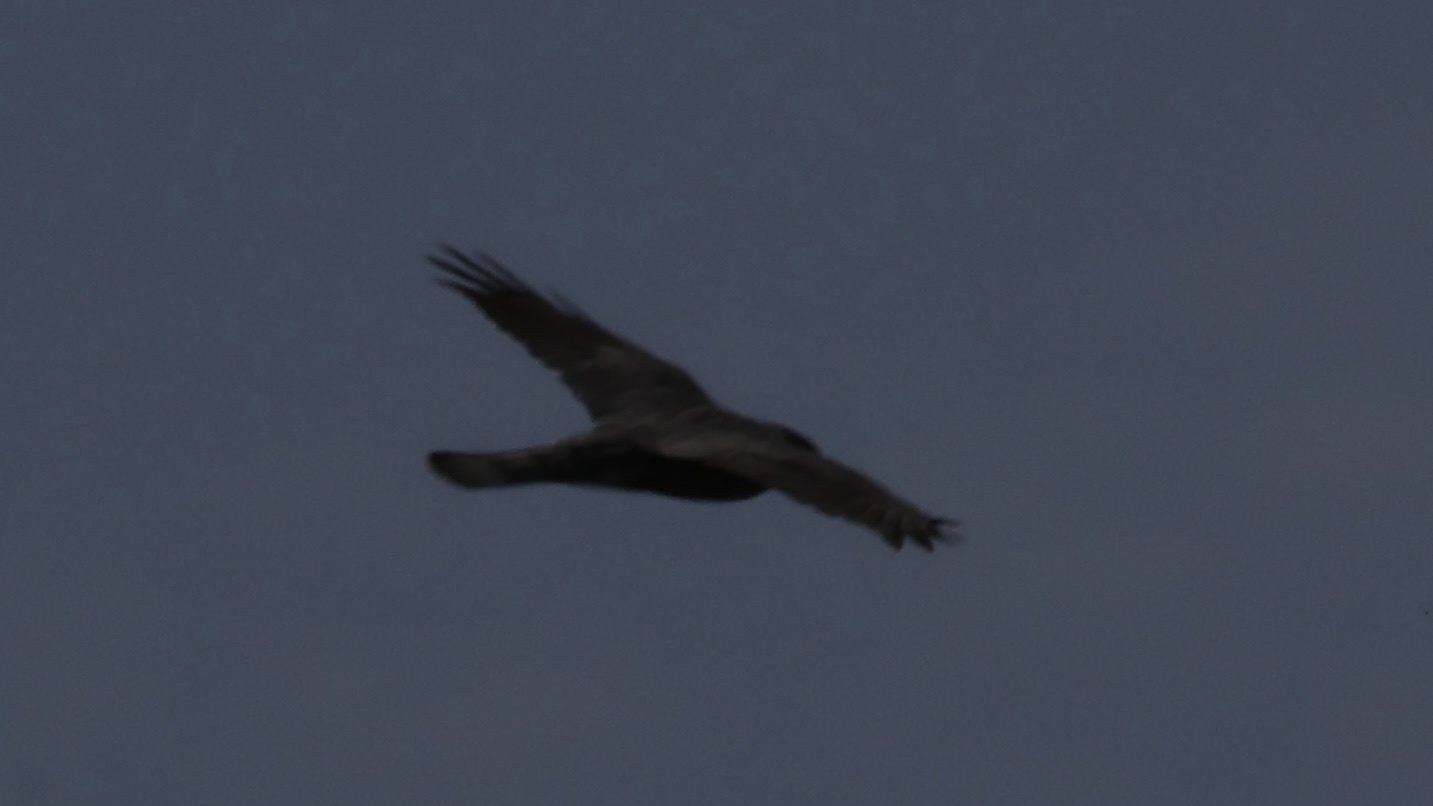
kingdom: Animalia
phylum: Chordata
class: Aves
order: Accipitriformes
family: Accipitridae
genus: Accipiter
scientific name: Accipiter cooperii
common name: Cooper's hawk
